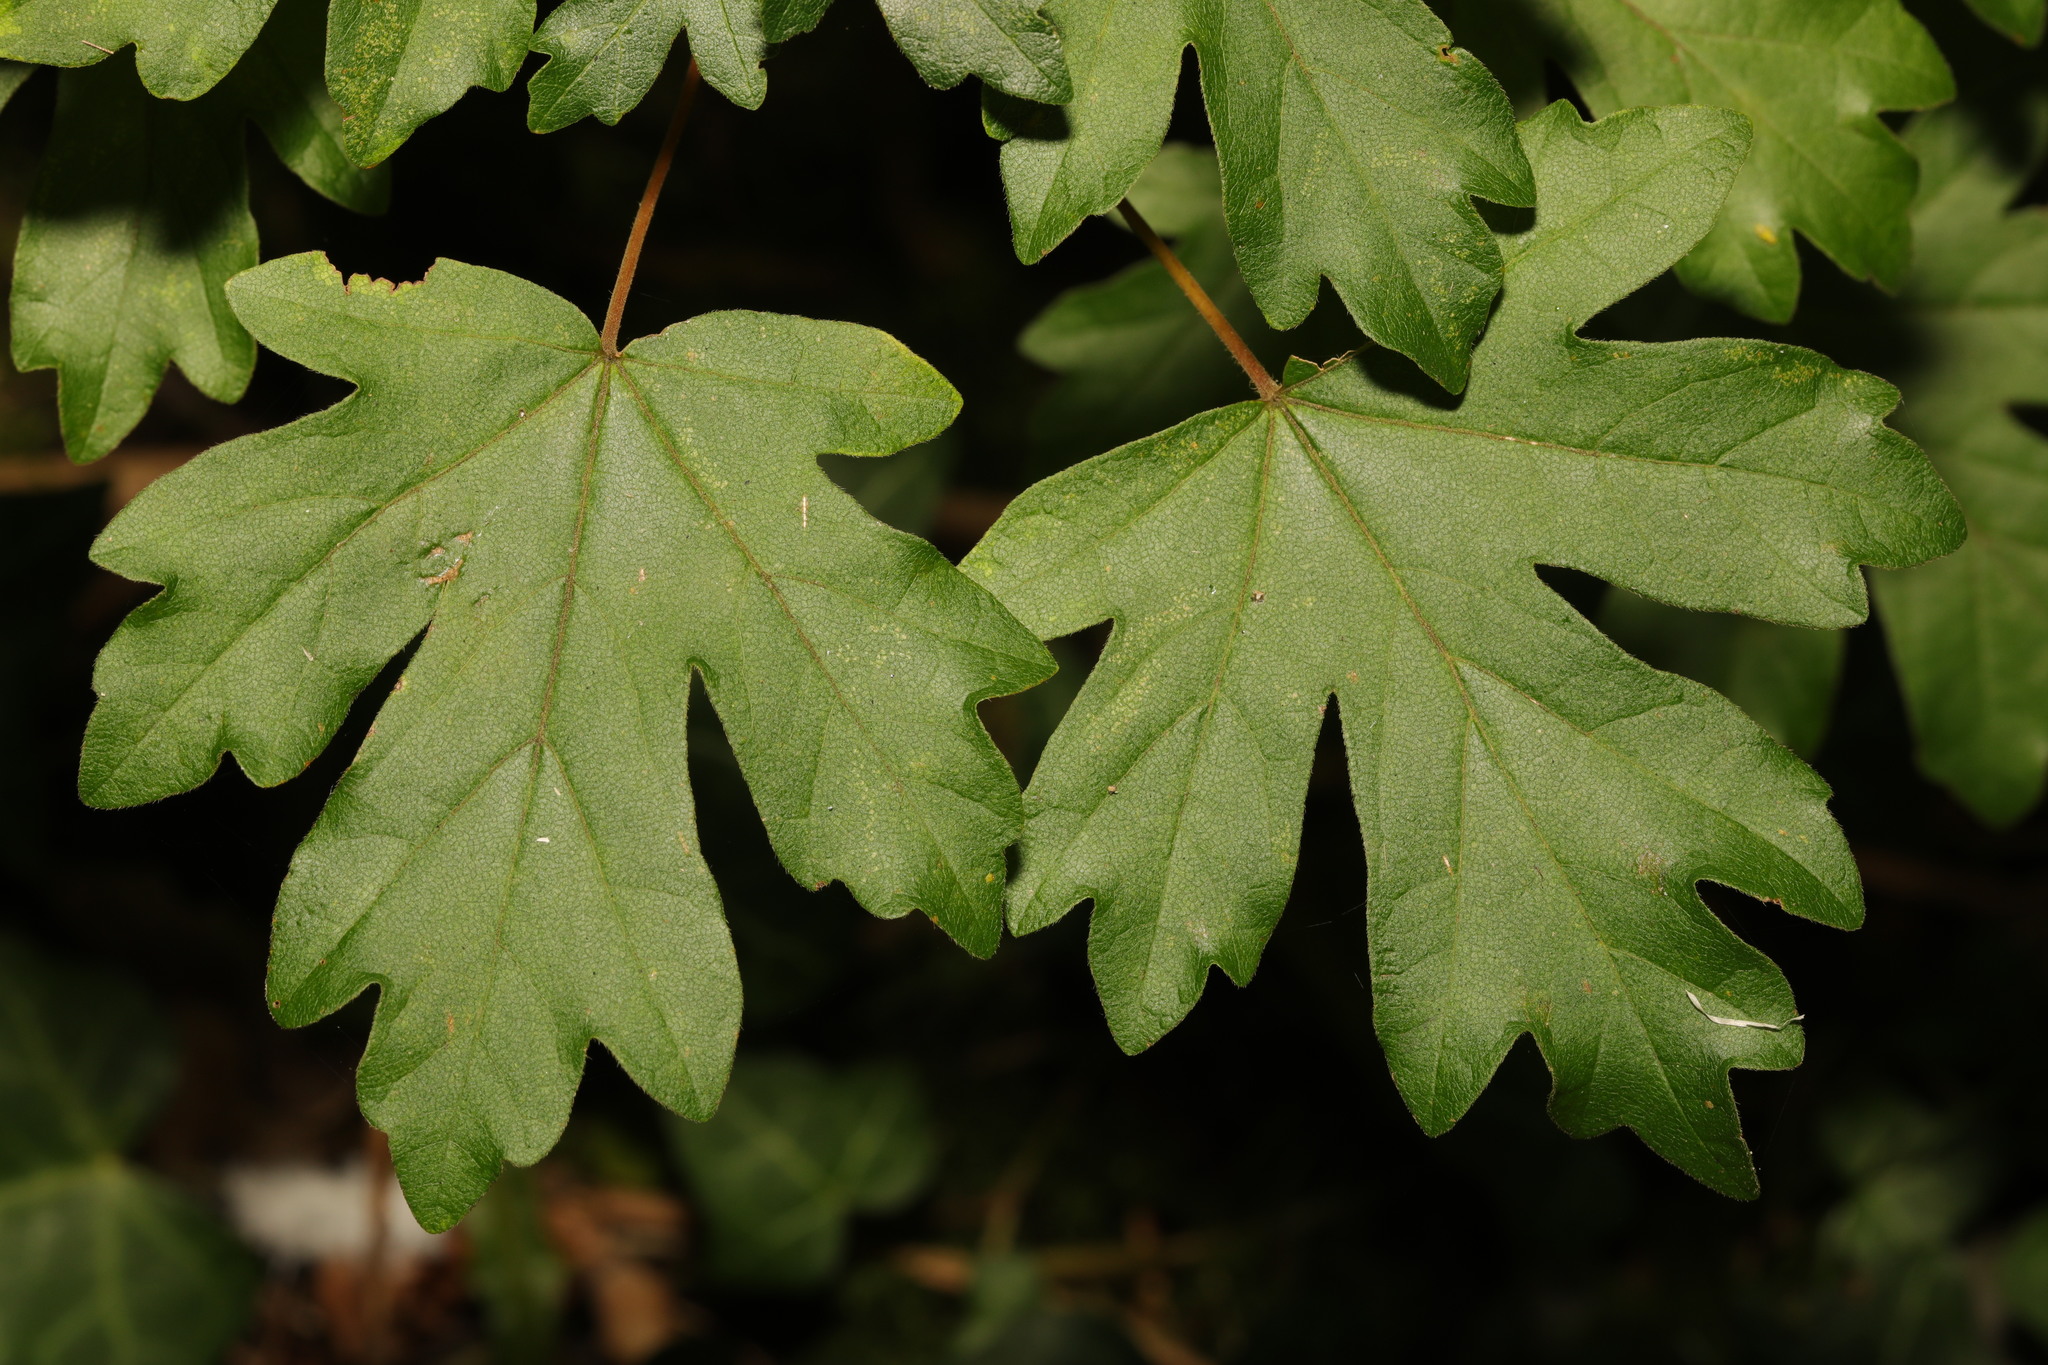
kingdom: Plantae
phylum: Tracheophyta
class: Magnoliopsida
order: Sapindales
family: Sapindaceae
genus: Acer
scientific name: Acer campestre
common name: Field maple
